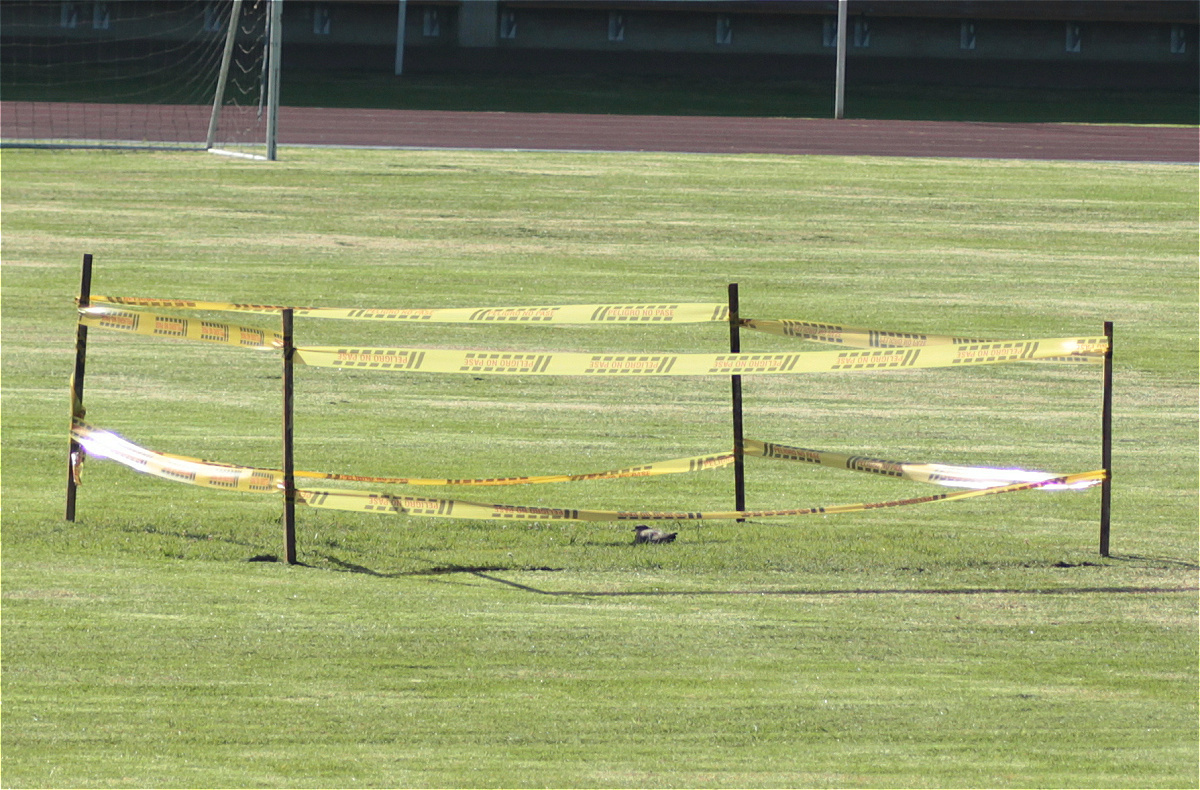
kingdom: Animalia
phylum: Chordata
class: Aves
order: Charadriiformes
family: Charadriidae
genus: Vanellus
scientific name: Vanellus chilensis
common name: Southern lapwing
